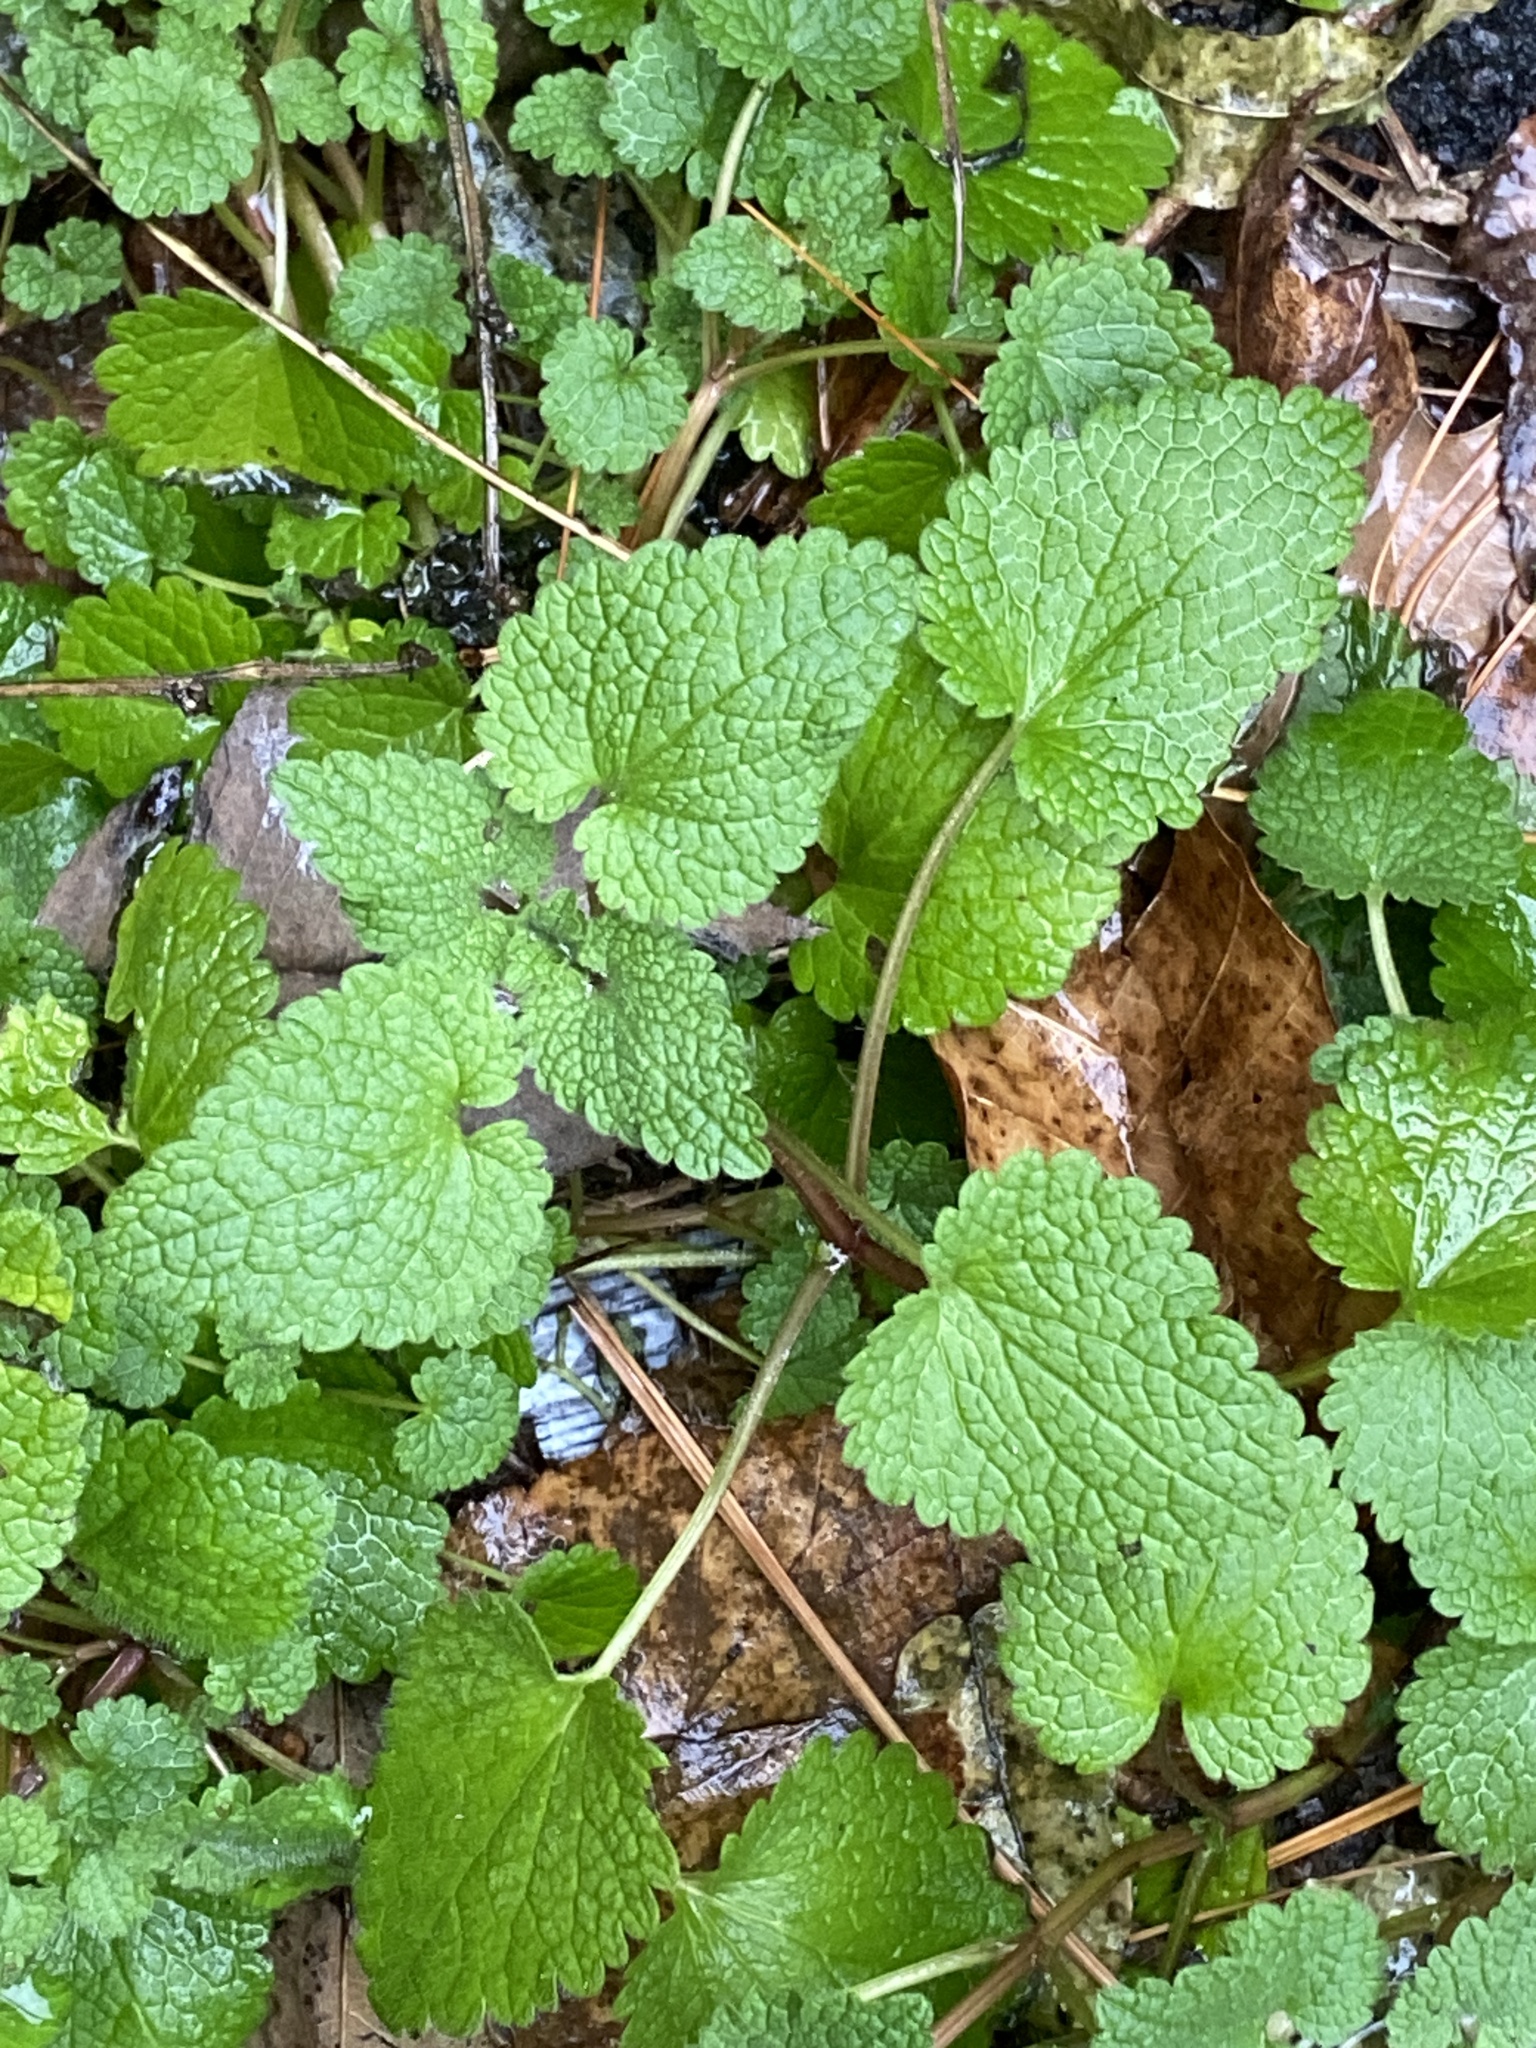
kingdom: Plantae
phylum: Tracheophyta
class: Magnoliopsida
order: Lamiales
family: Lamiaceae
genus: Lamium
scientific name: Lamium purpureum
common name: Red dead-nettle
